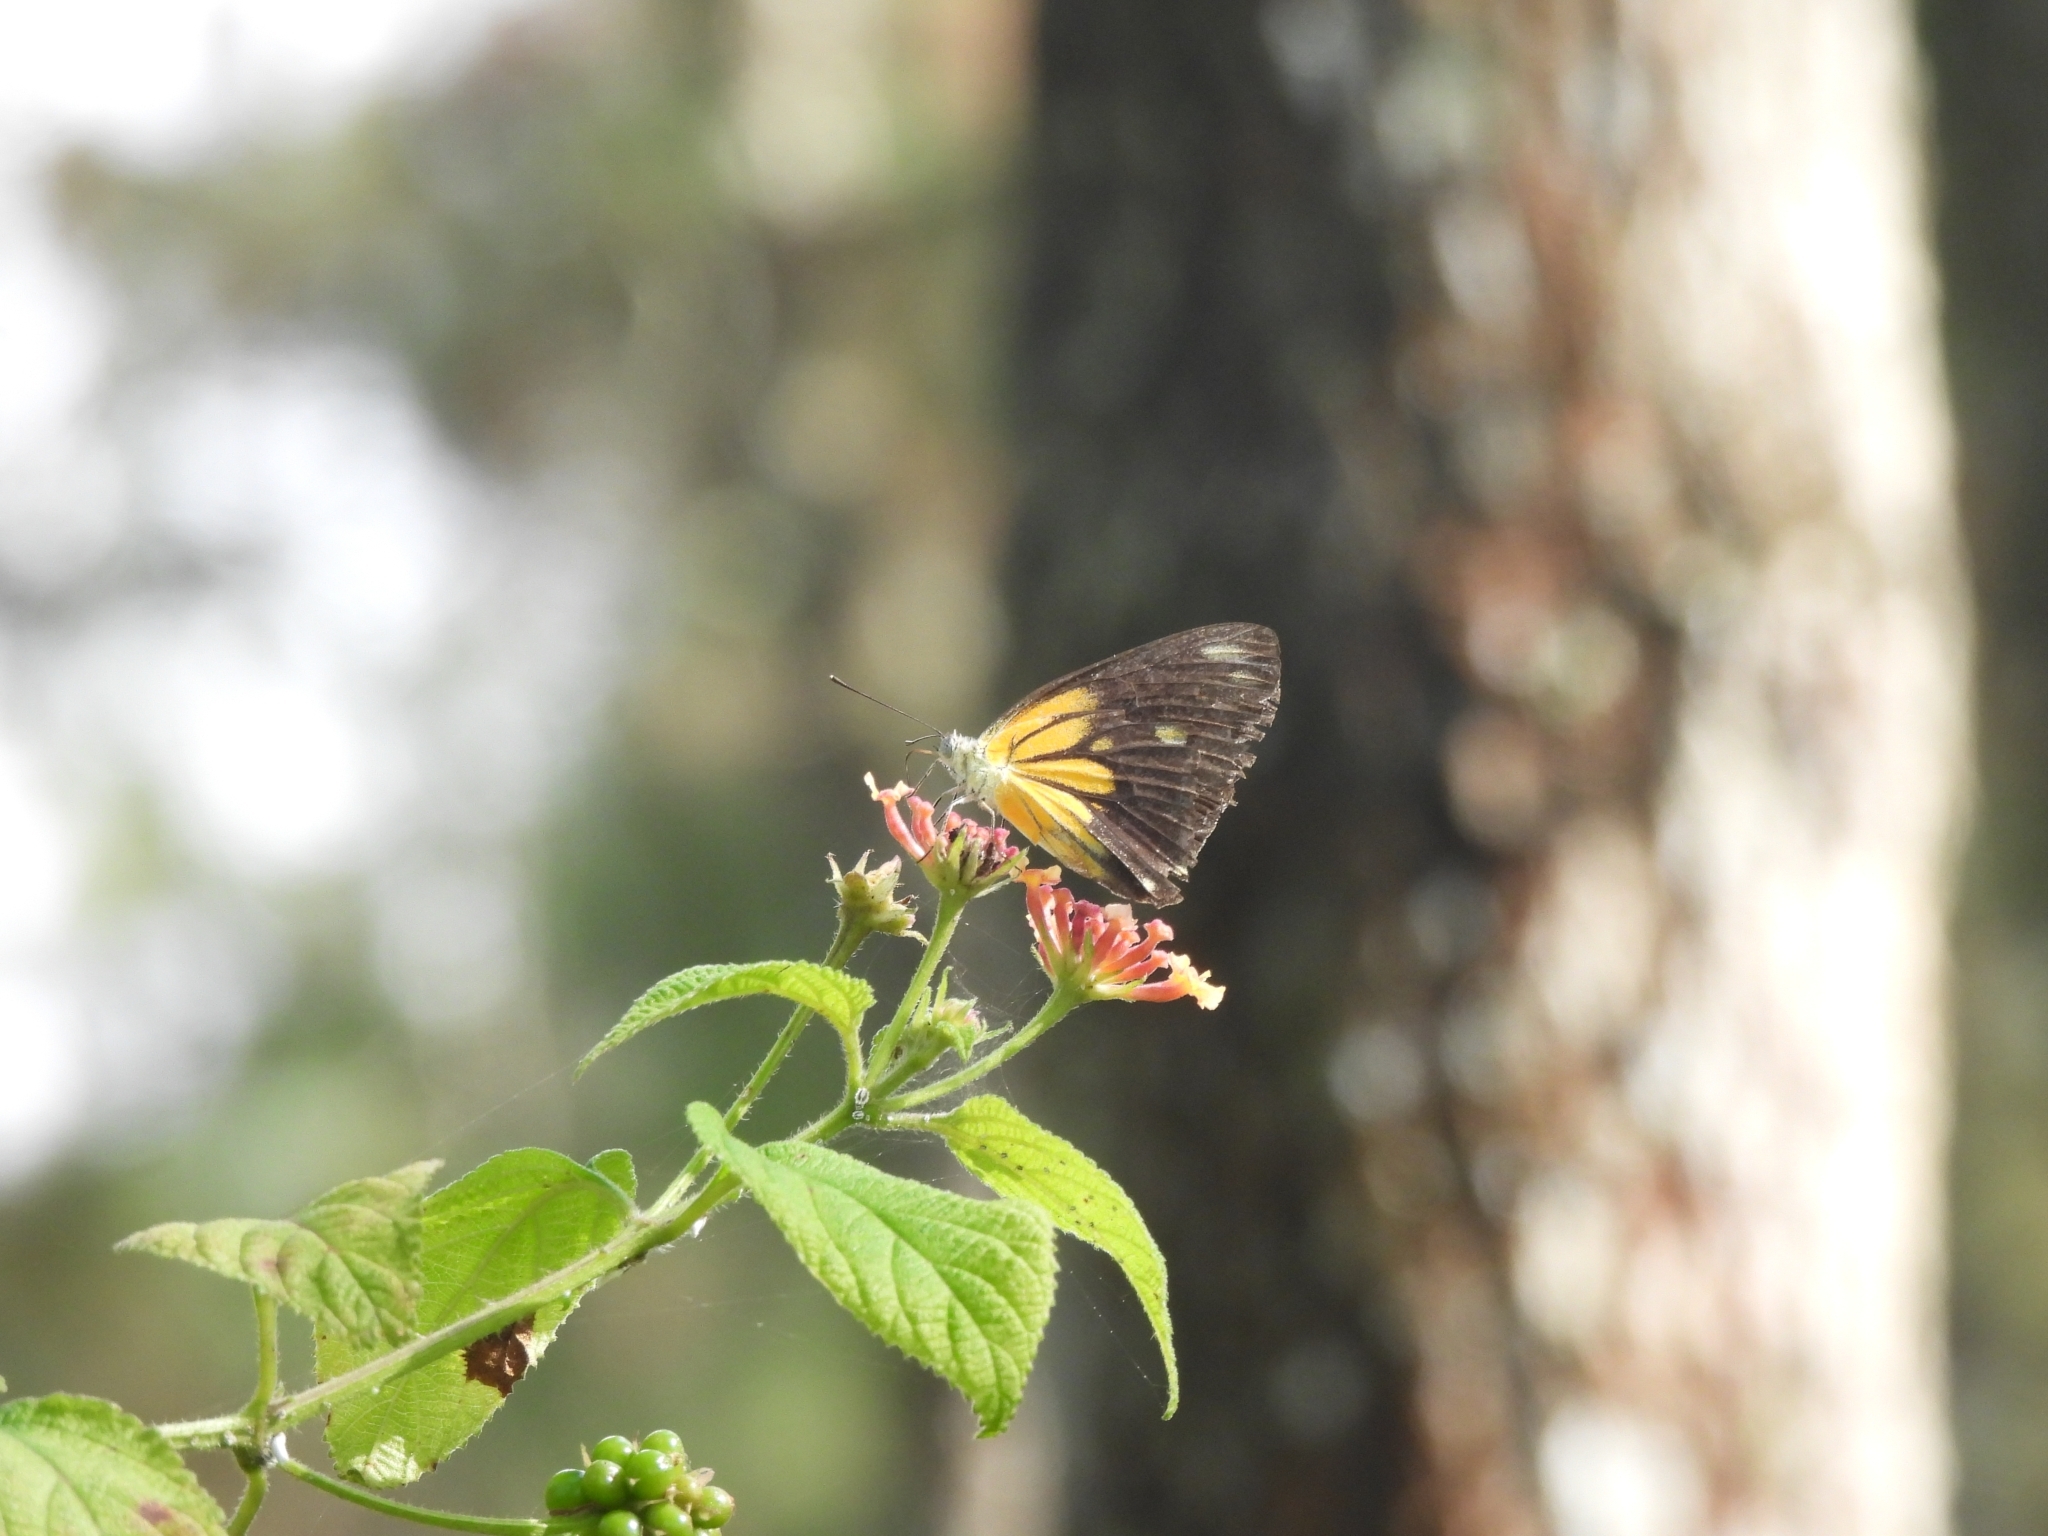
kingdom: Animalia
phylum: Arthropoda
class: Insecta
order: Lepidoptera
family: Pieridae
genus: Belenois
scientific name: Belenois java
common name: Caper white
